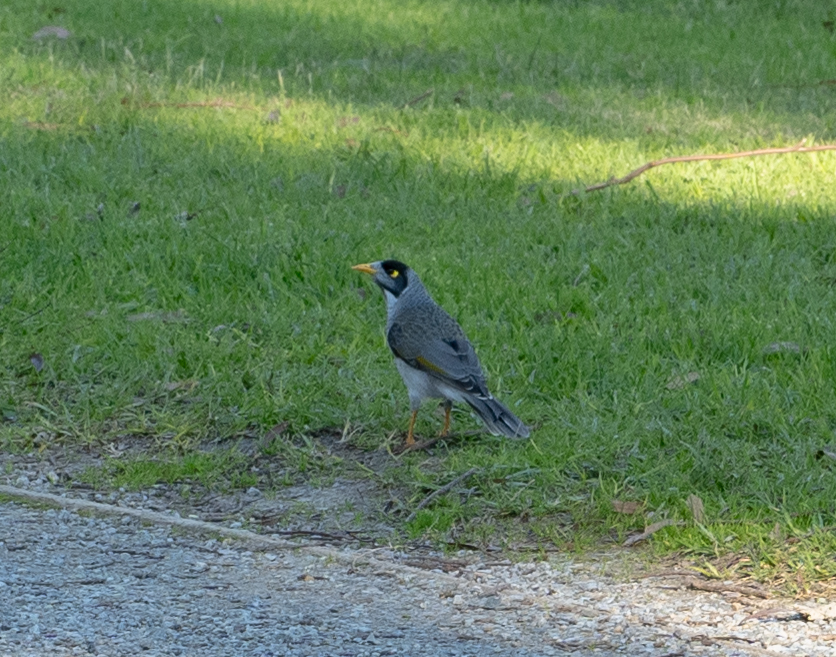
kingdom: Animalia
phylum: Chordata
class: Aves
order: Passeriformes
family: Meliphagidae
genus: Manorina
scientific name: Manorina melanocephala
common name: Noisy miner
